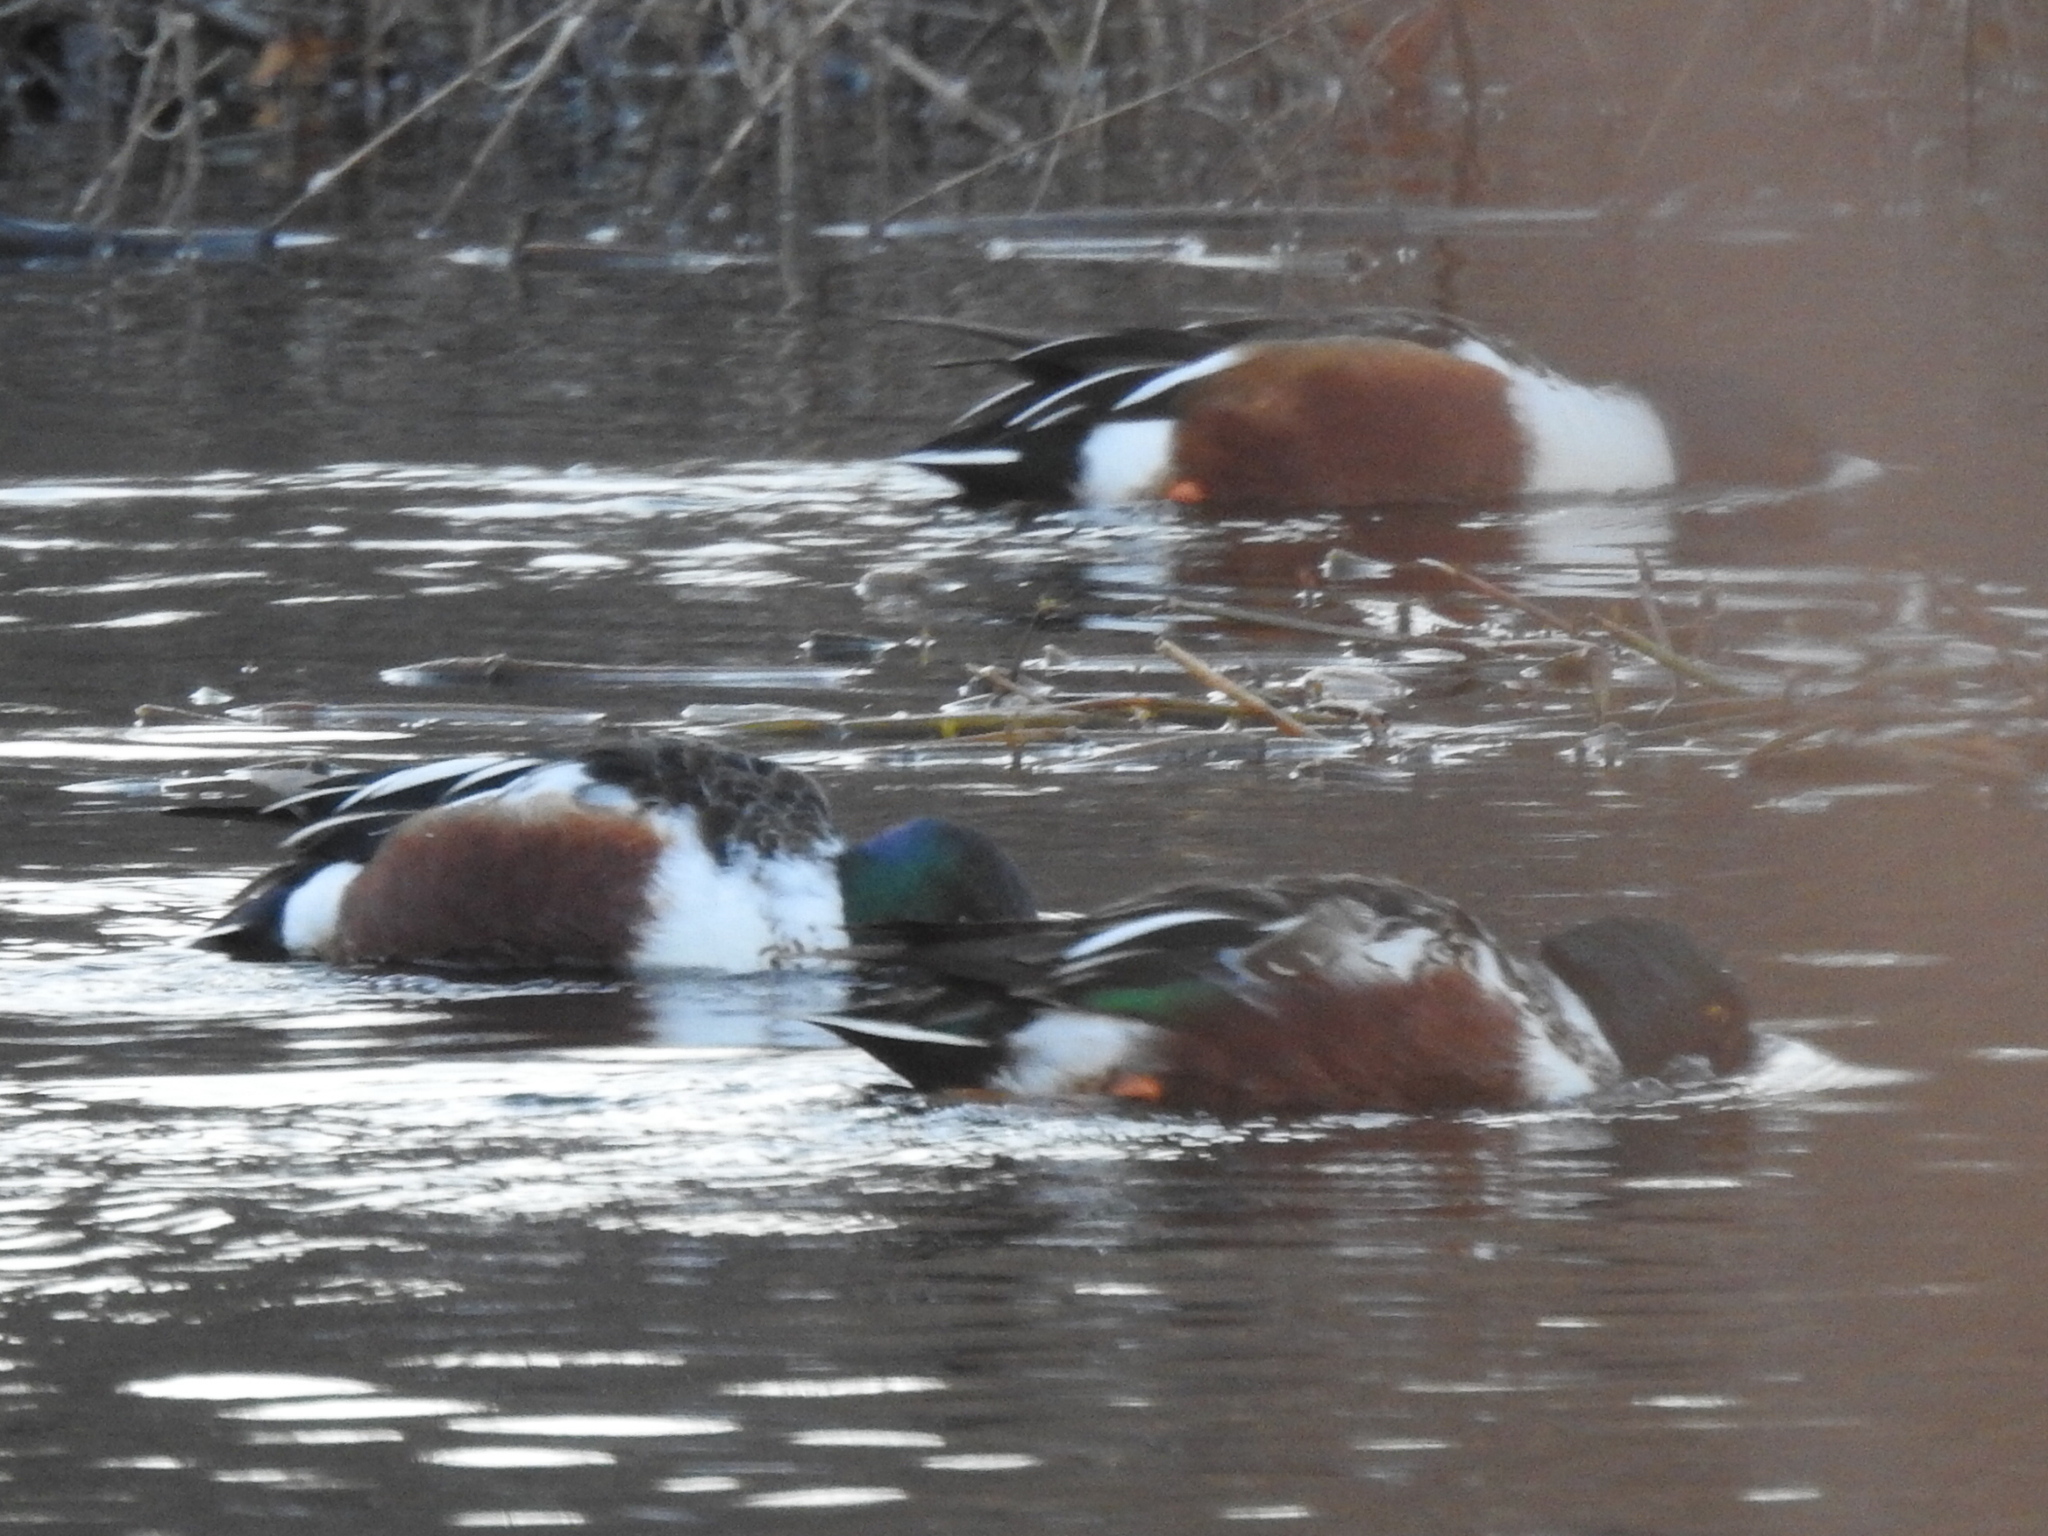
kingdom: Animalia
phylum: Chordata
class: Aves
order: Anseriformes
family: Anatidae
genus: Spatula
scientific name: Spatula clypeata
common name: Northern shoveler
